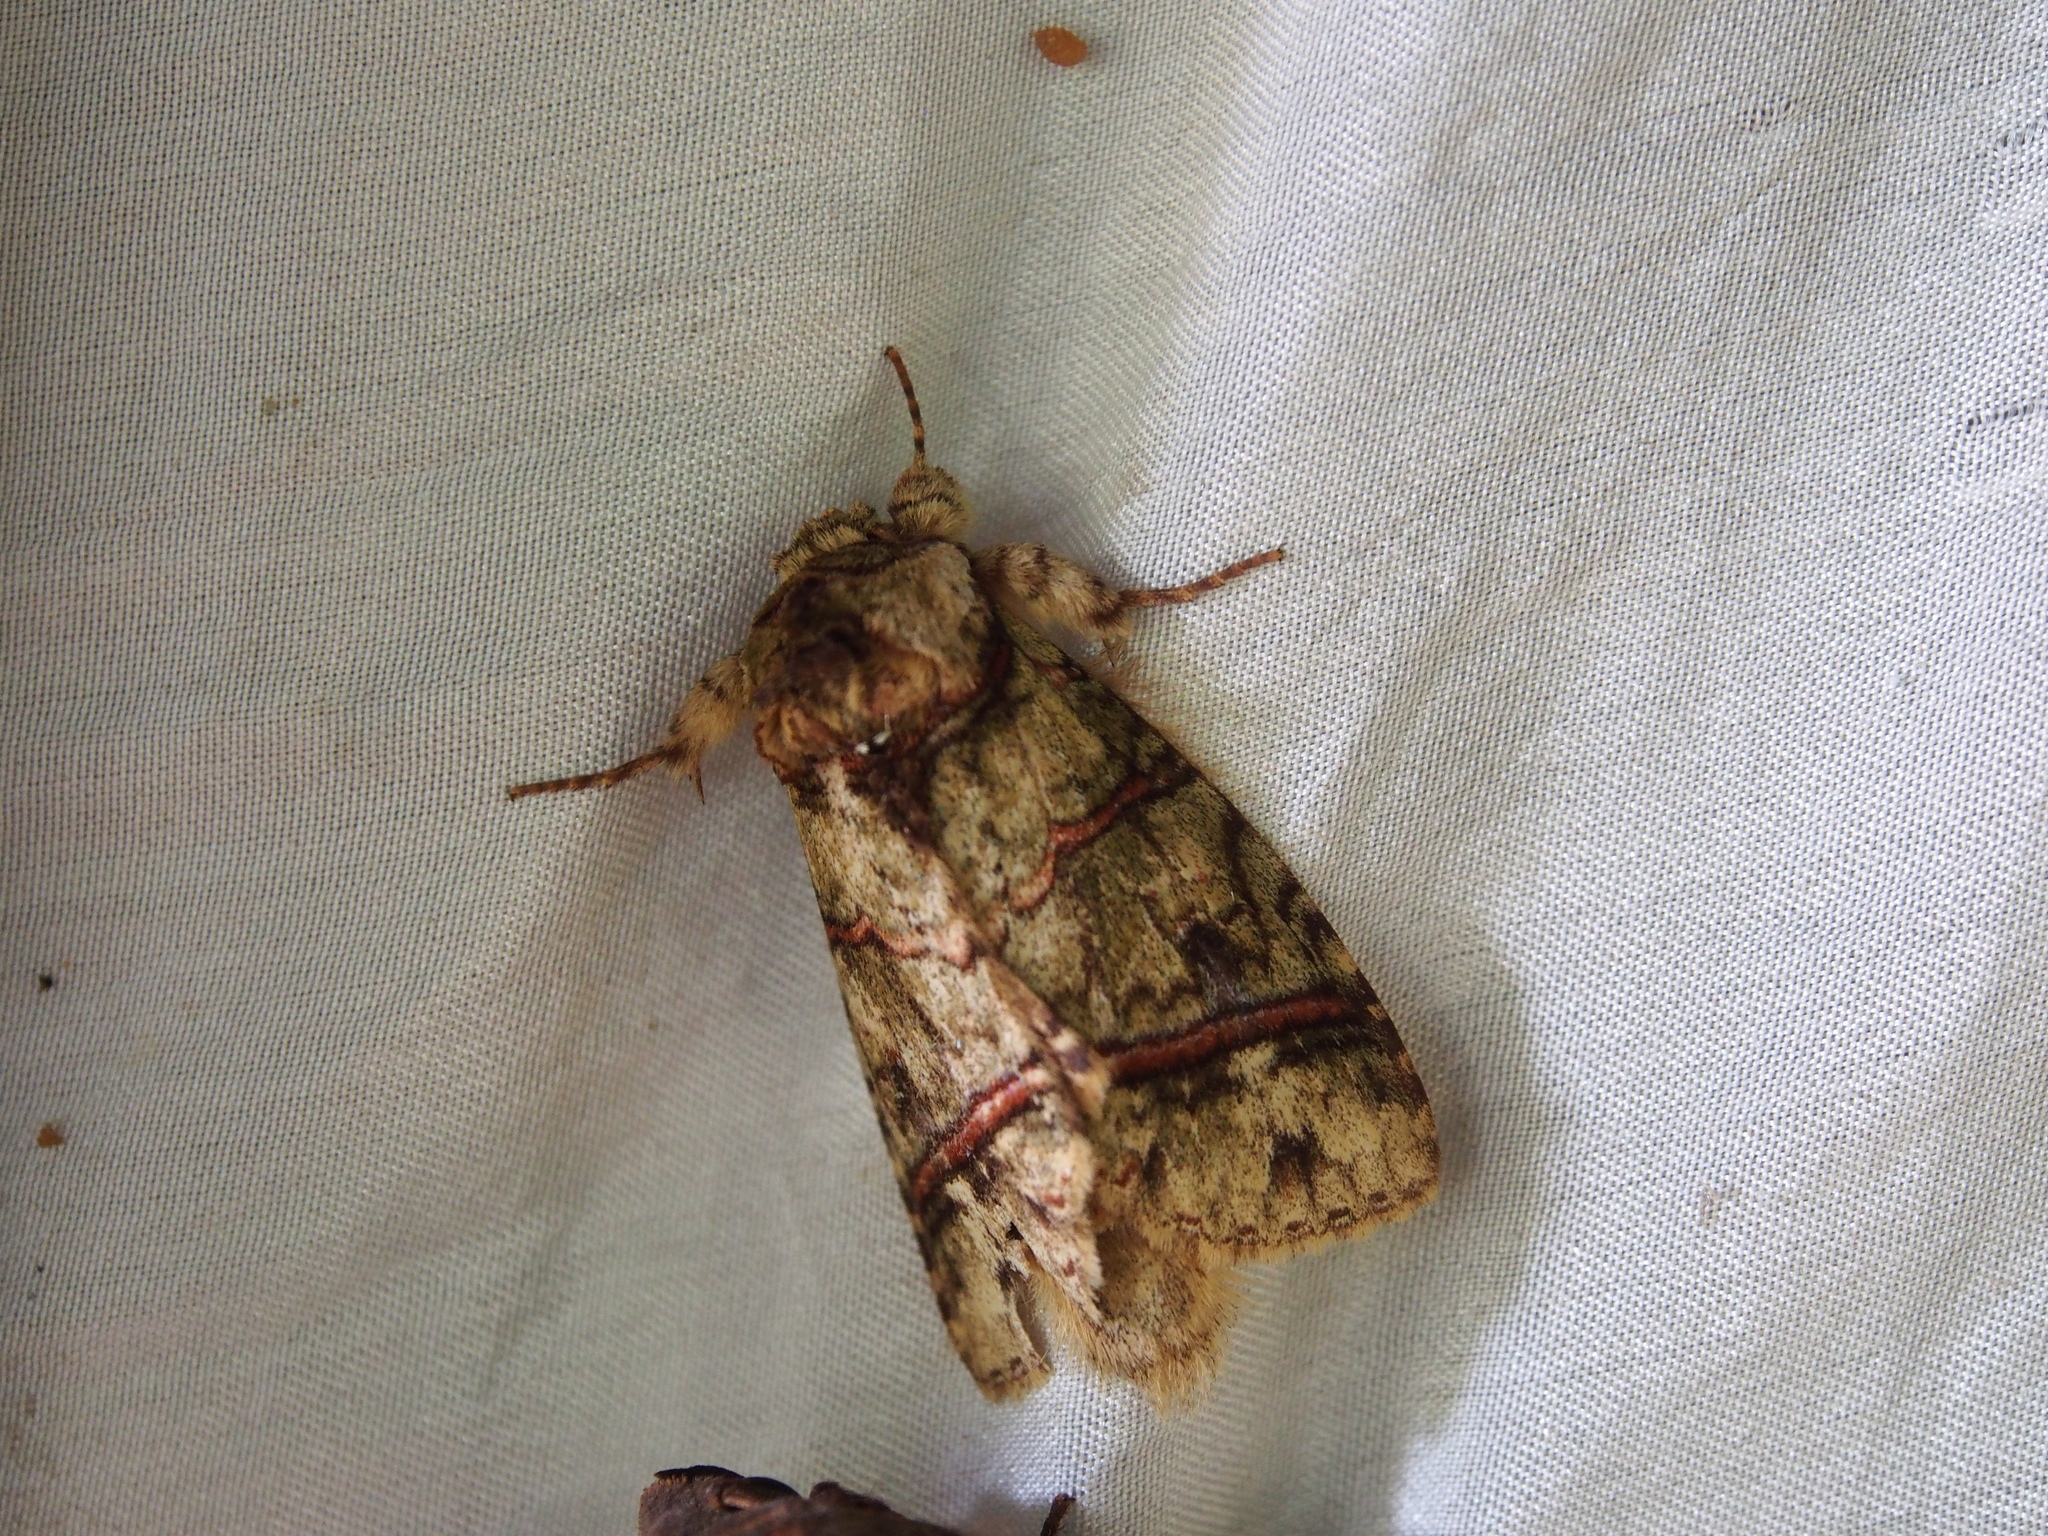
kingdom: Animalia
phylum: Arthropoda
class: Insecta
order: Lepidoptera
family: Notodontidae
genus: Eragisa
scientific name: Eragisa barnesi
